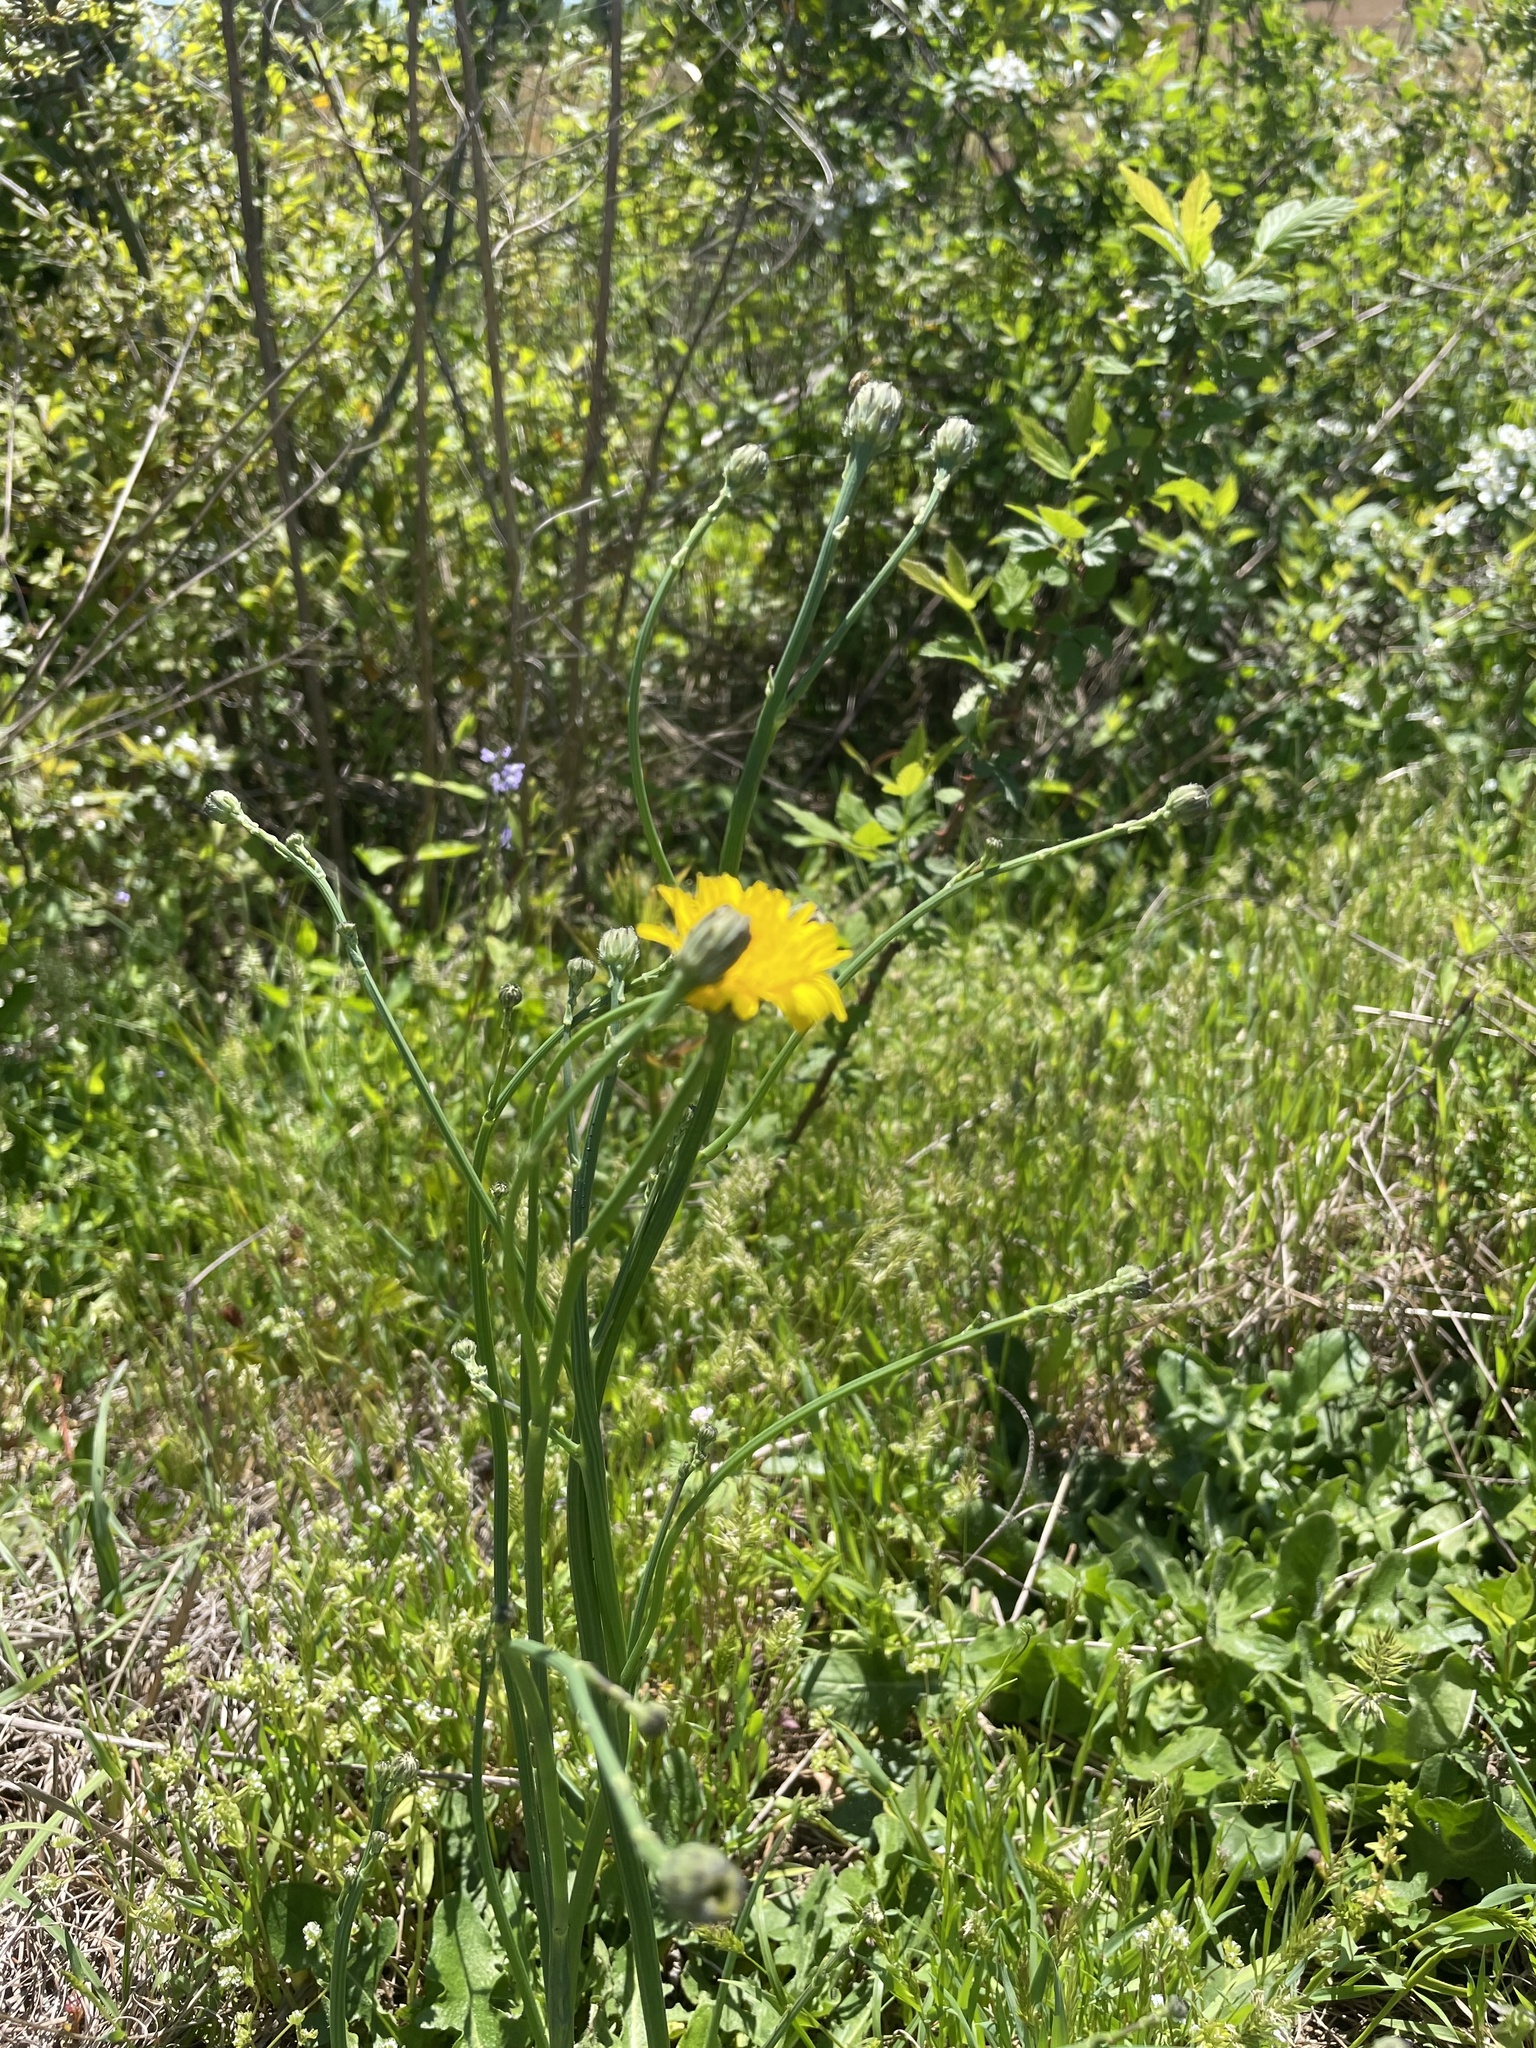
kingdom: Plantae
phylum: Tracheophyta
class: Magnoliopsida
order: Asterales
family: Asteraceae
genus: Hypochaeris
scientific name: Hypochaeris radicata
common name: Flatweed
